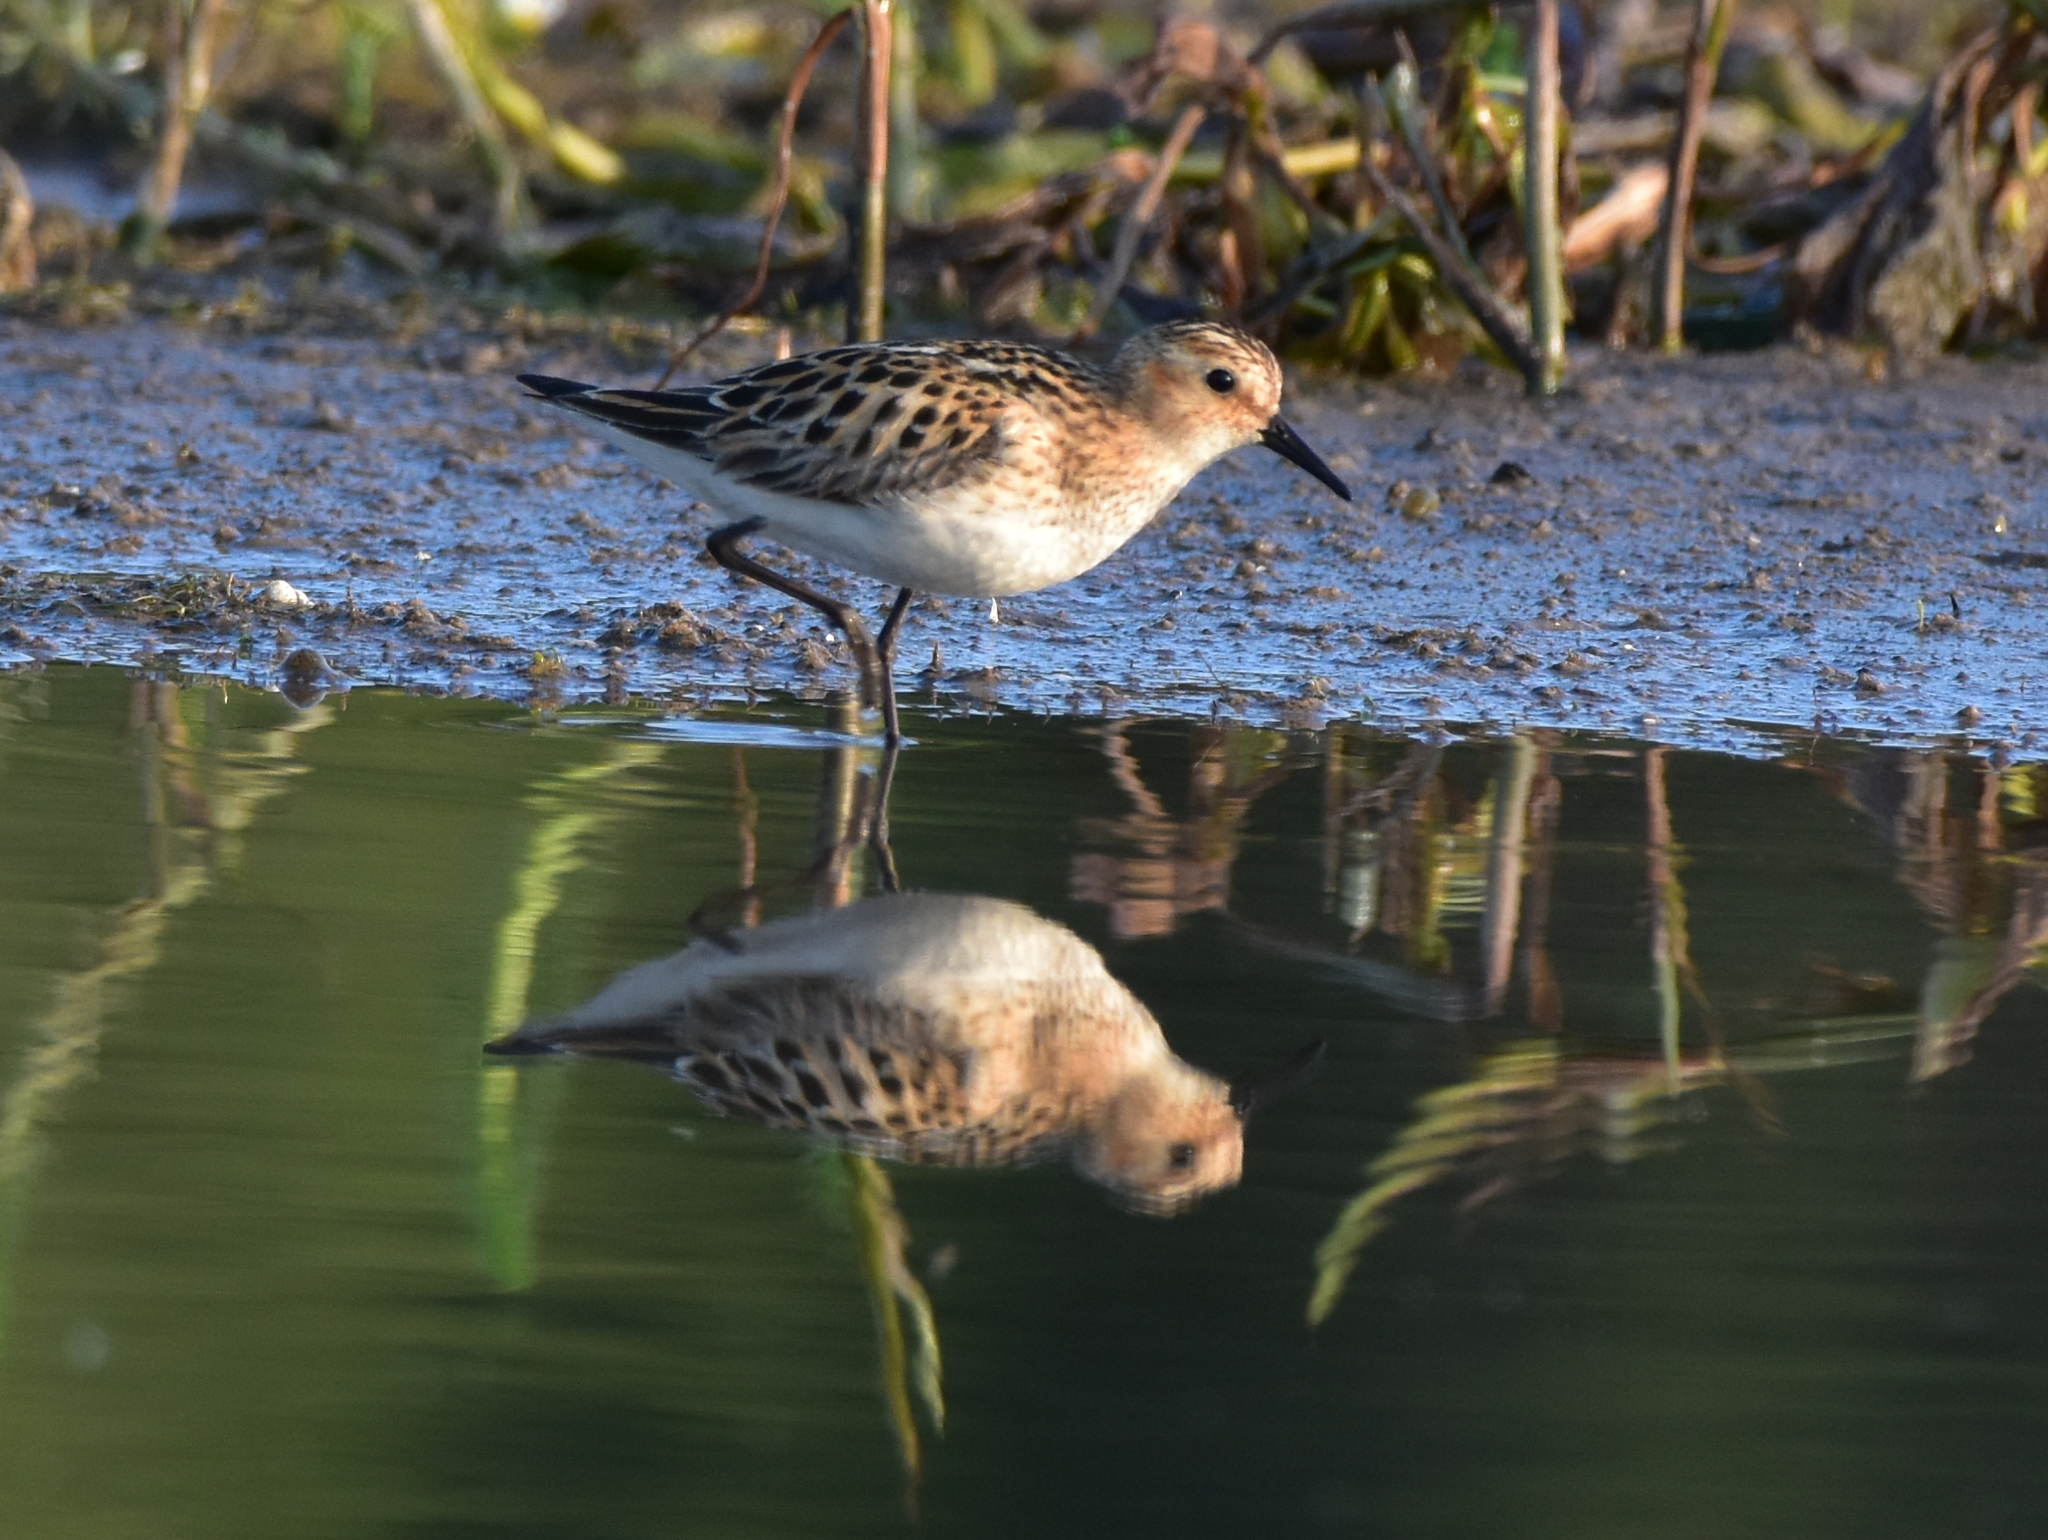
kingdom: Animalia
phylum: Chordata
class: Aves
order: Charadriiformes
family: Scolopacidae
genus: Calidris
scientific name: Calidris minuta
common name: Little stint
